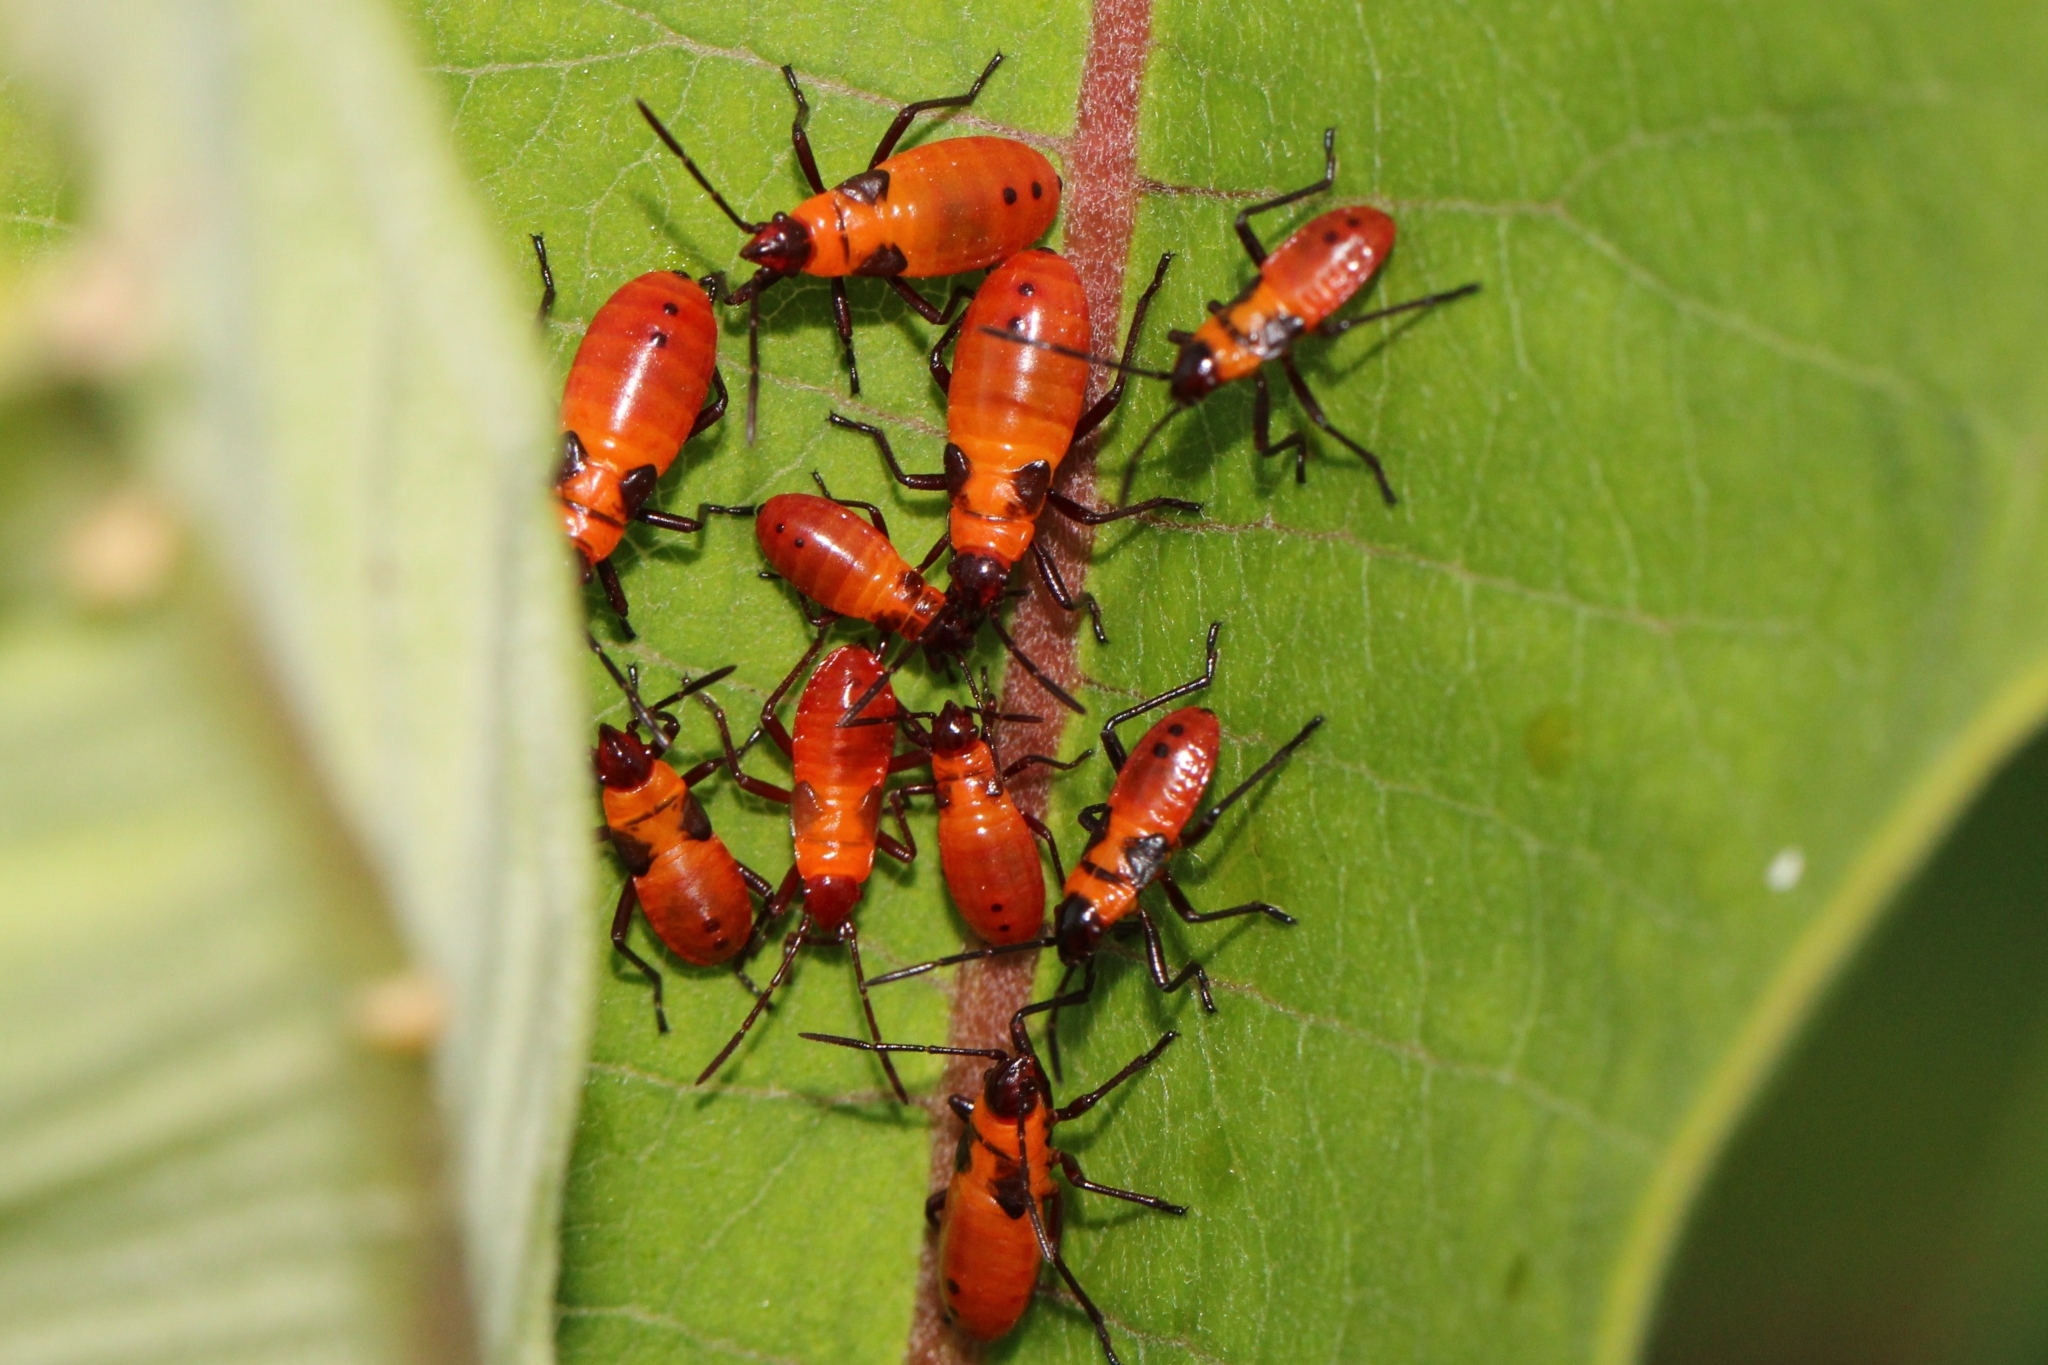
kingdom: Animalia
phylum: Arthropoda
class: Insecta
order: Hemiptera
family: Lygaeidae
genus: Oncopeltus
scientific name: Oncopeltus fasciatus
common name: Large milkweed bug
